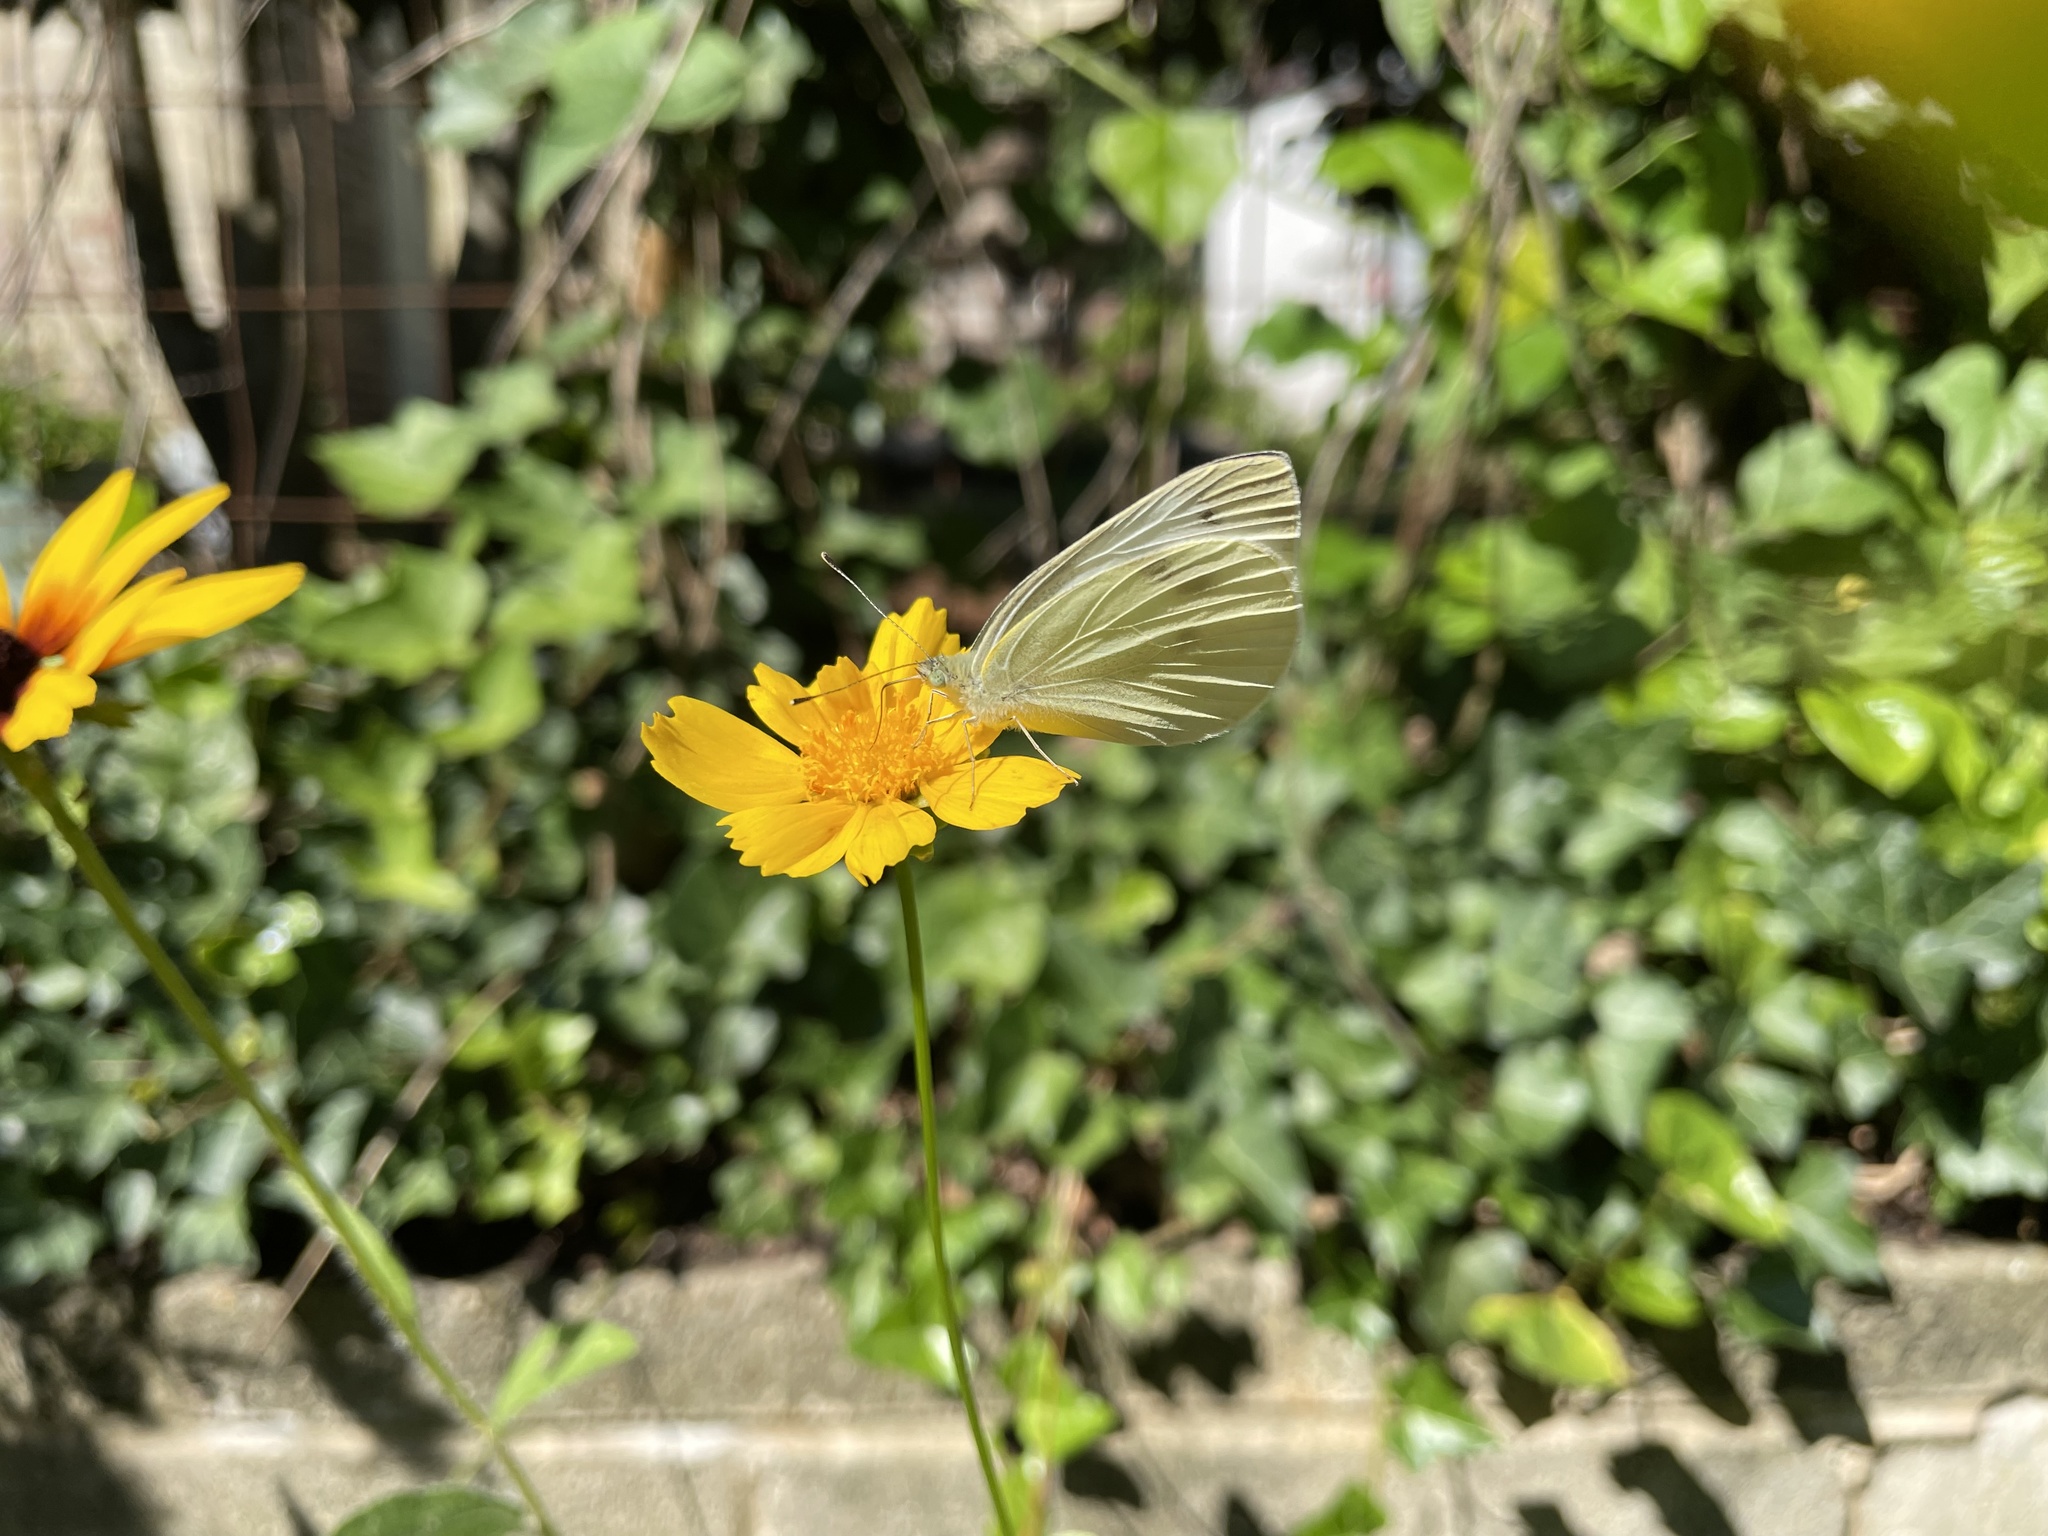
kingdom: Animalia
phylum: Arthropoda
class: Insecta
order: Lepidoptera
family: Pieridae
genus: Pieris
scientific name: Pieris rapae
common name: Small white
